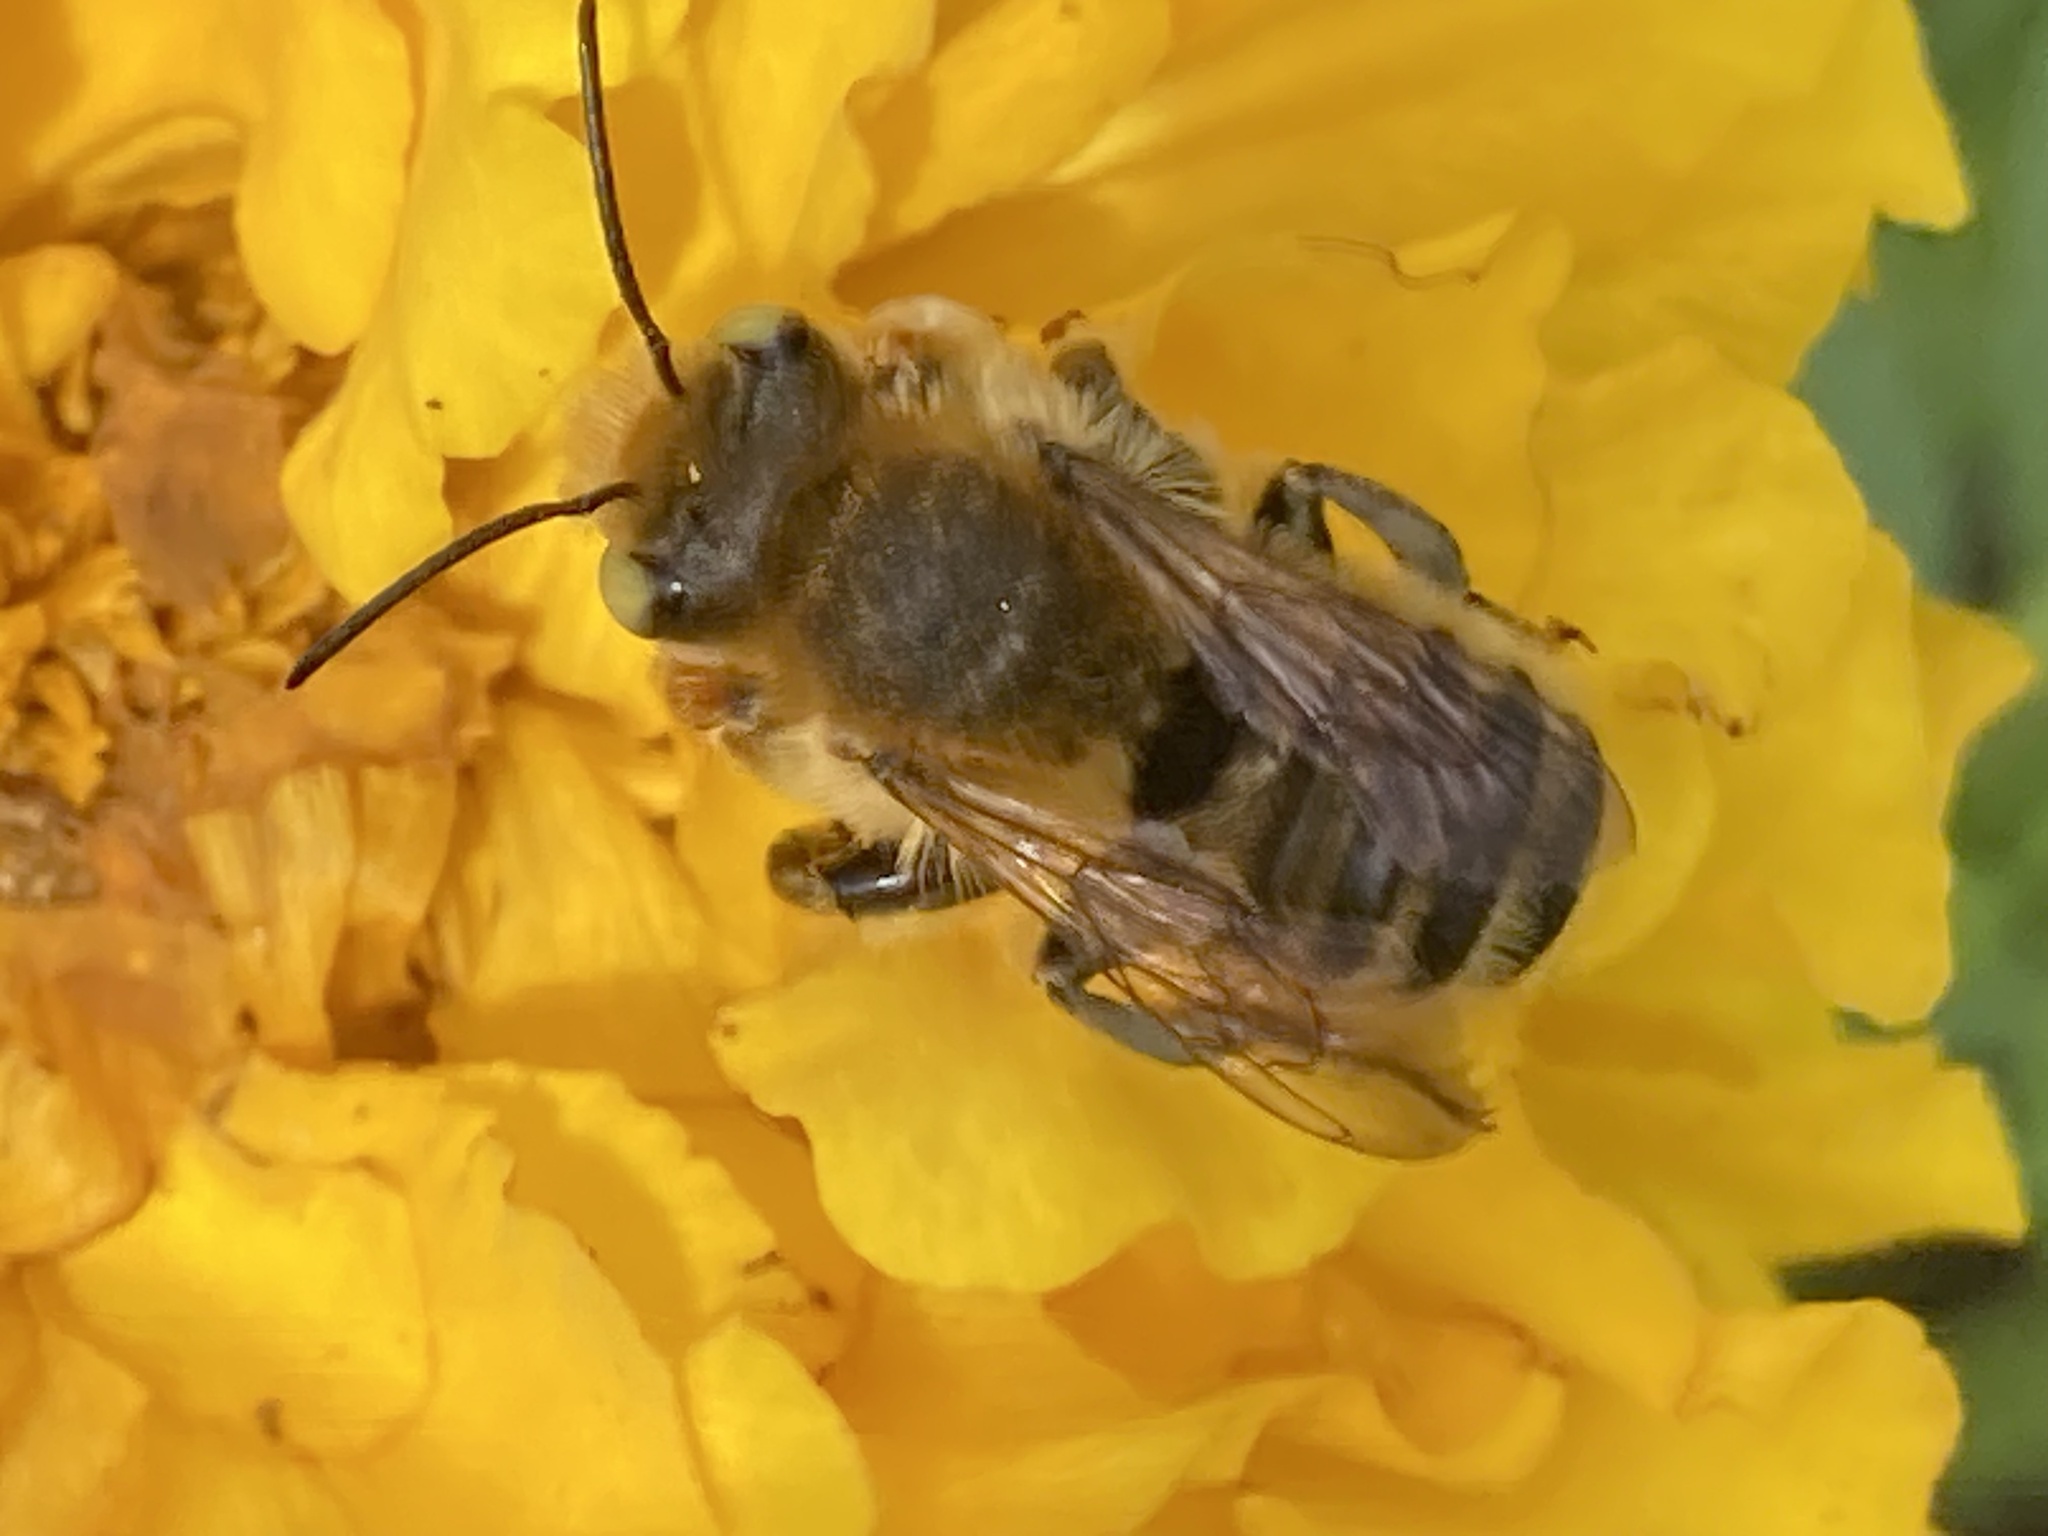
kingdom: Animalia
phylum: Arthropoda
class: Insecta
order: Hymenoptera
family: Megachilidae
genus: Megachile
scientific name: Megachile latimanus
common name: Leafcutting bee
